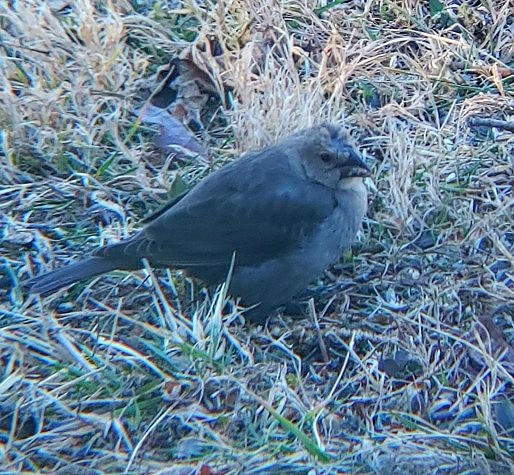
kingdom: Animalia
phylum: Chordata
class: Aves
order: Passeriformes
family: Icteridae
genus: Molothrus
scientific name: Molothrus ater
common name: Brown-headed cowbird
